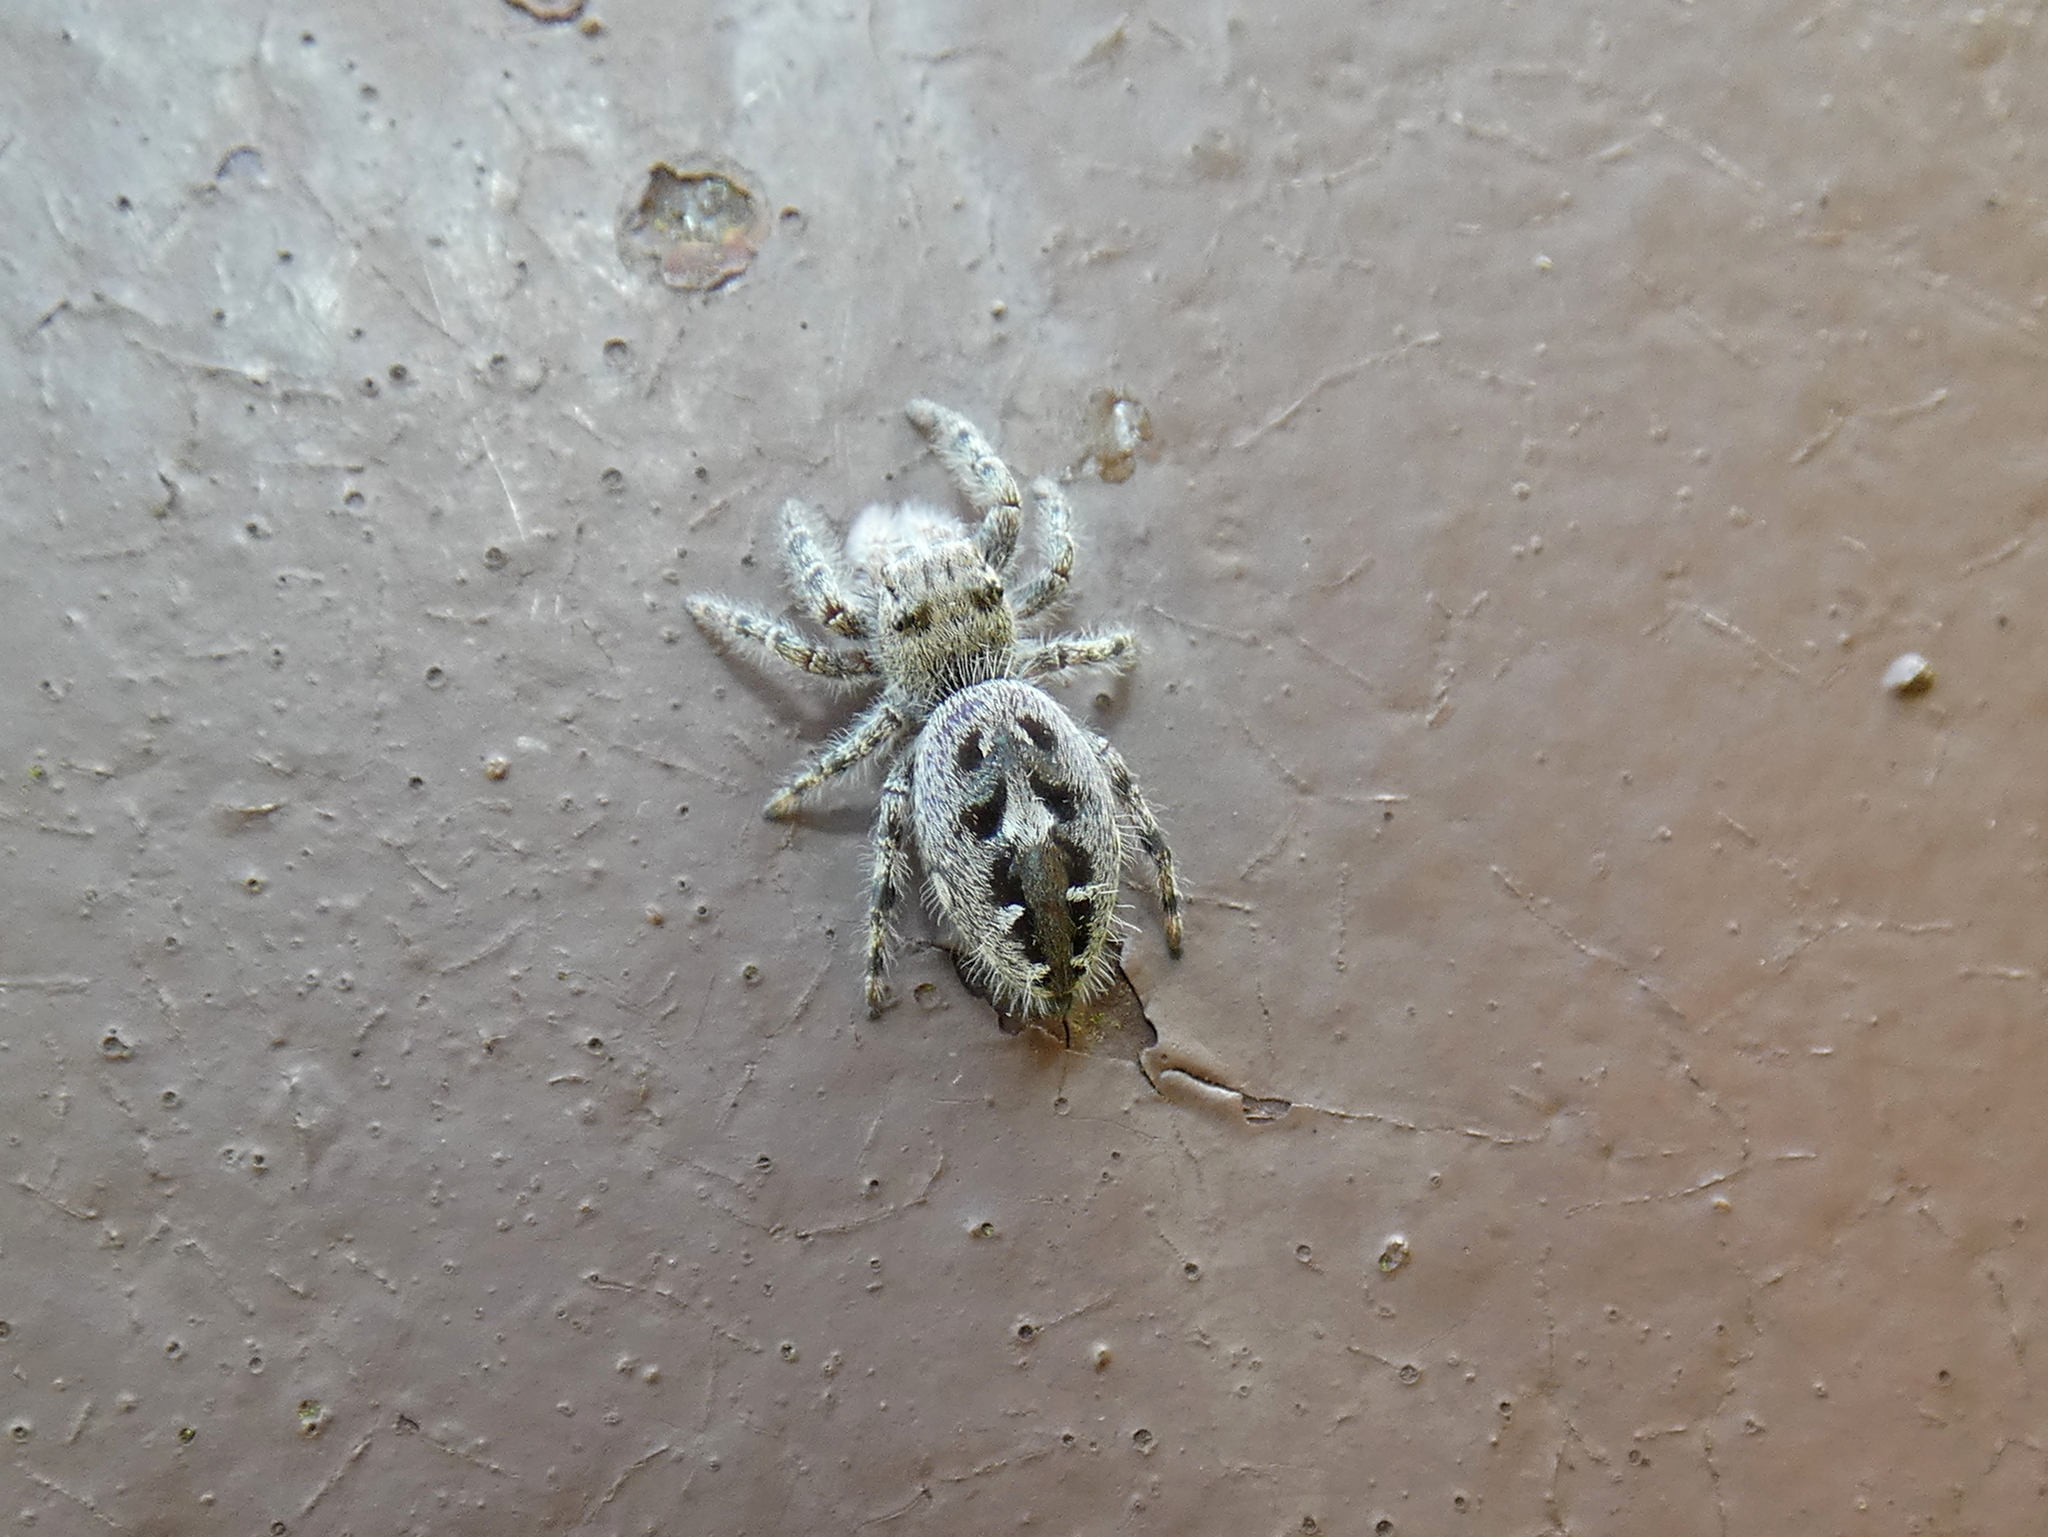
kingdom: Animalia
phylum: Arthropoda
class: Arachnida
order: Araneae
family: Salticidae
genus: Phidippus
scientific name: Phidippus putnami
